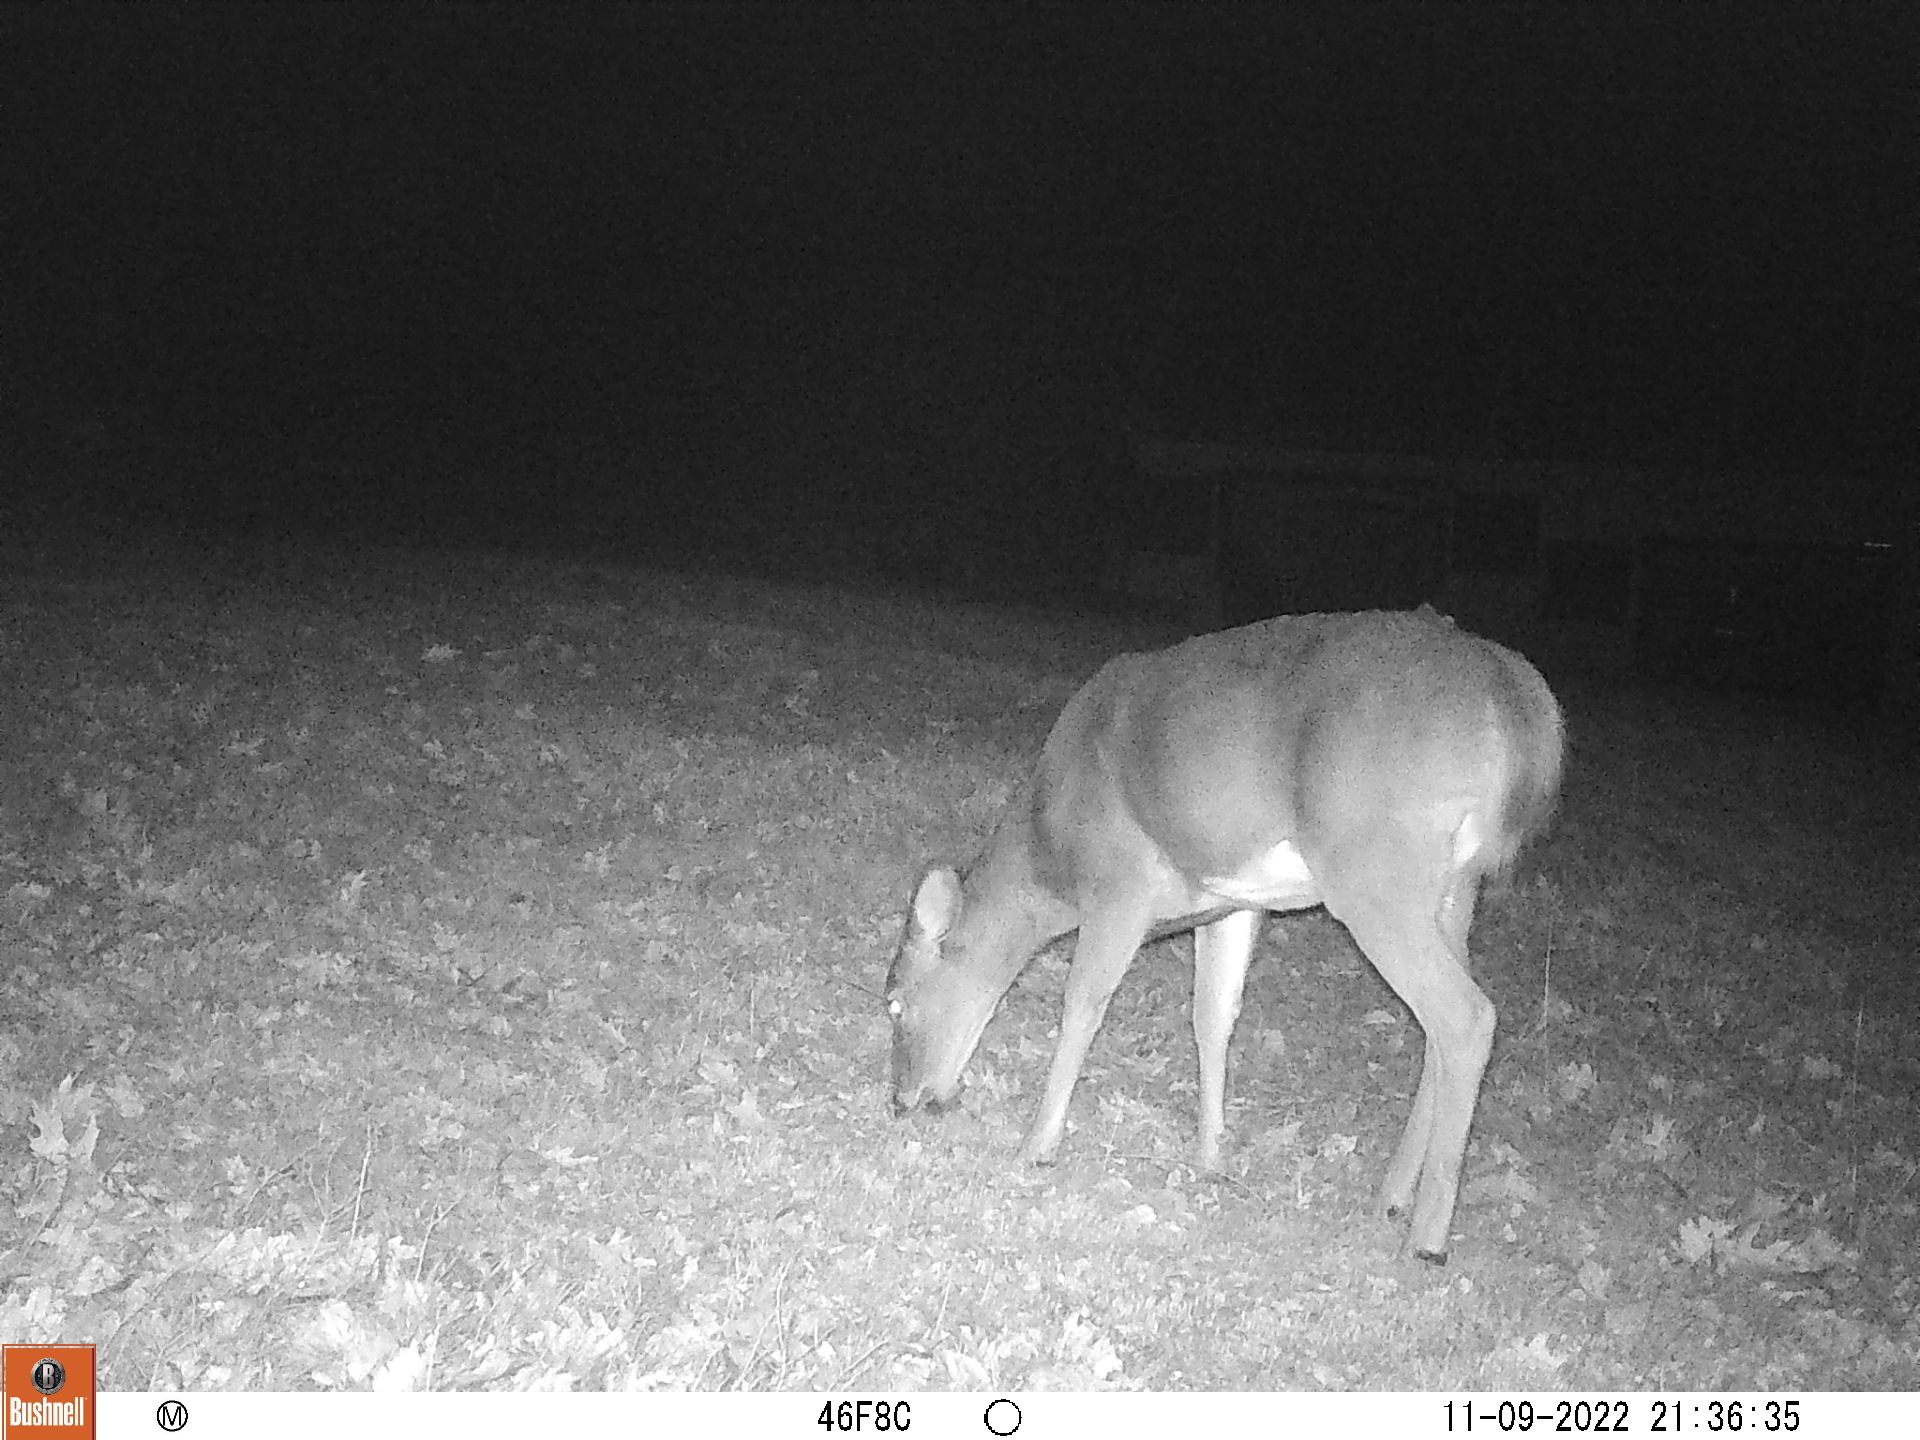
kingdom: Animalia
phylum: Chordata
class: Mammalia
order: Artiodactyla
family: Cervidae
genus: Odocoileus
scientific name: Odocoileus virginianus
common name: White-tailed deer
